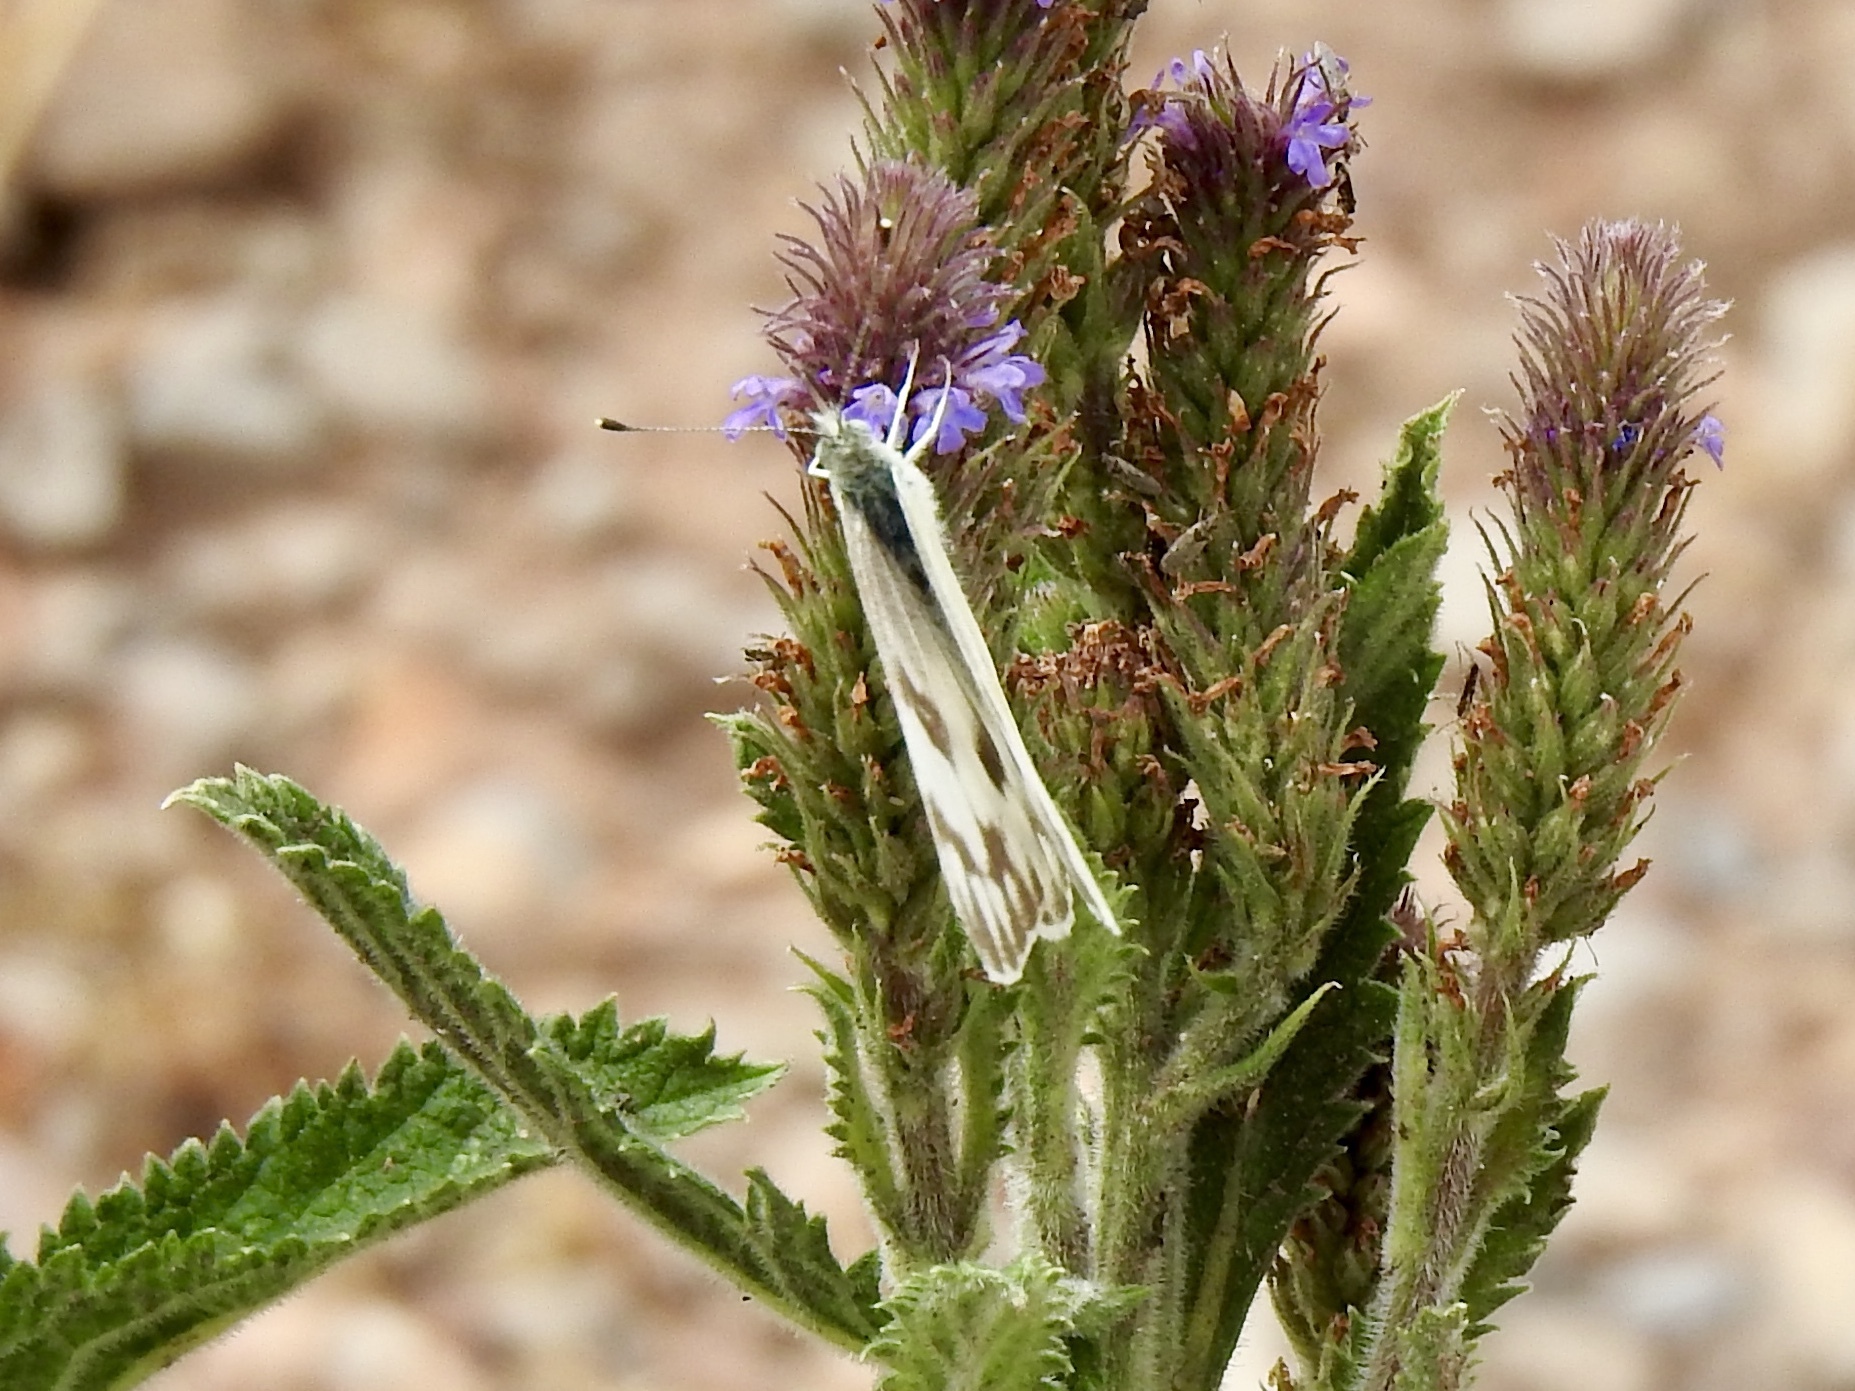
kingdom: Animalia
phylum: Arthropoda
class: Insecta
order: Lepidoptera
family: Pieridae
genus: Pontia
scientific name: Pontia protodice
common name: Checkered white
